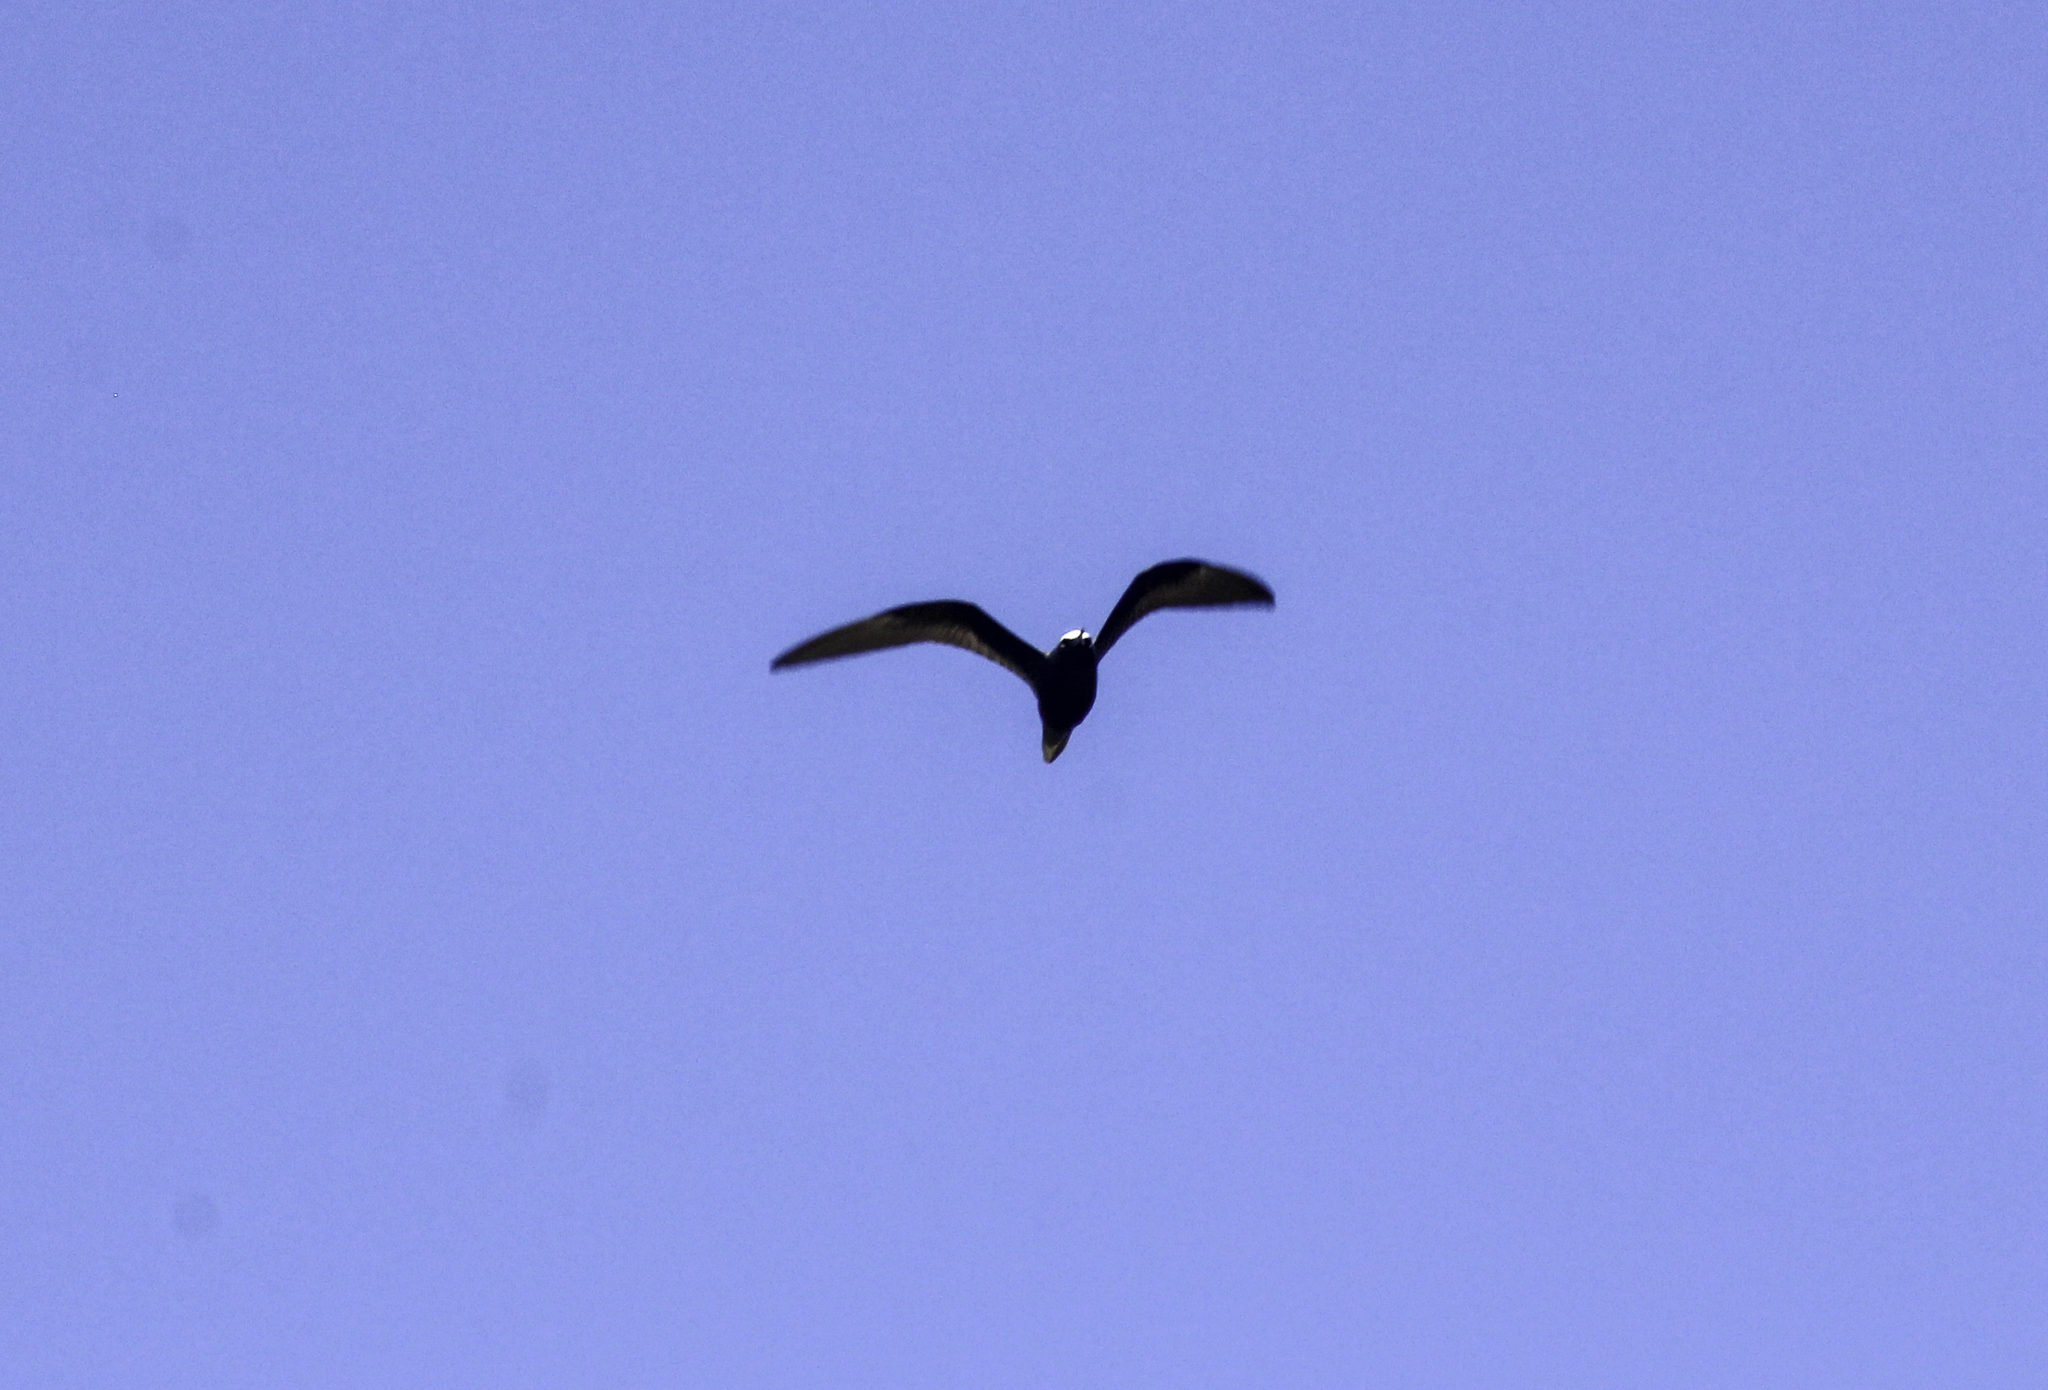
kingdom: Animalia
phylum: Chordata
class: Aves
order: Charadriiformes
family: Laridae
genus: Anous
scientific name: Anous stolidus
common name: Brown noddy
